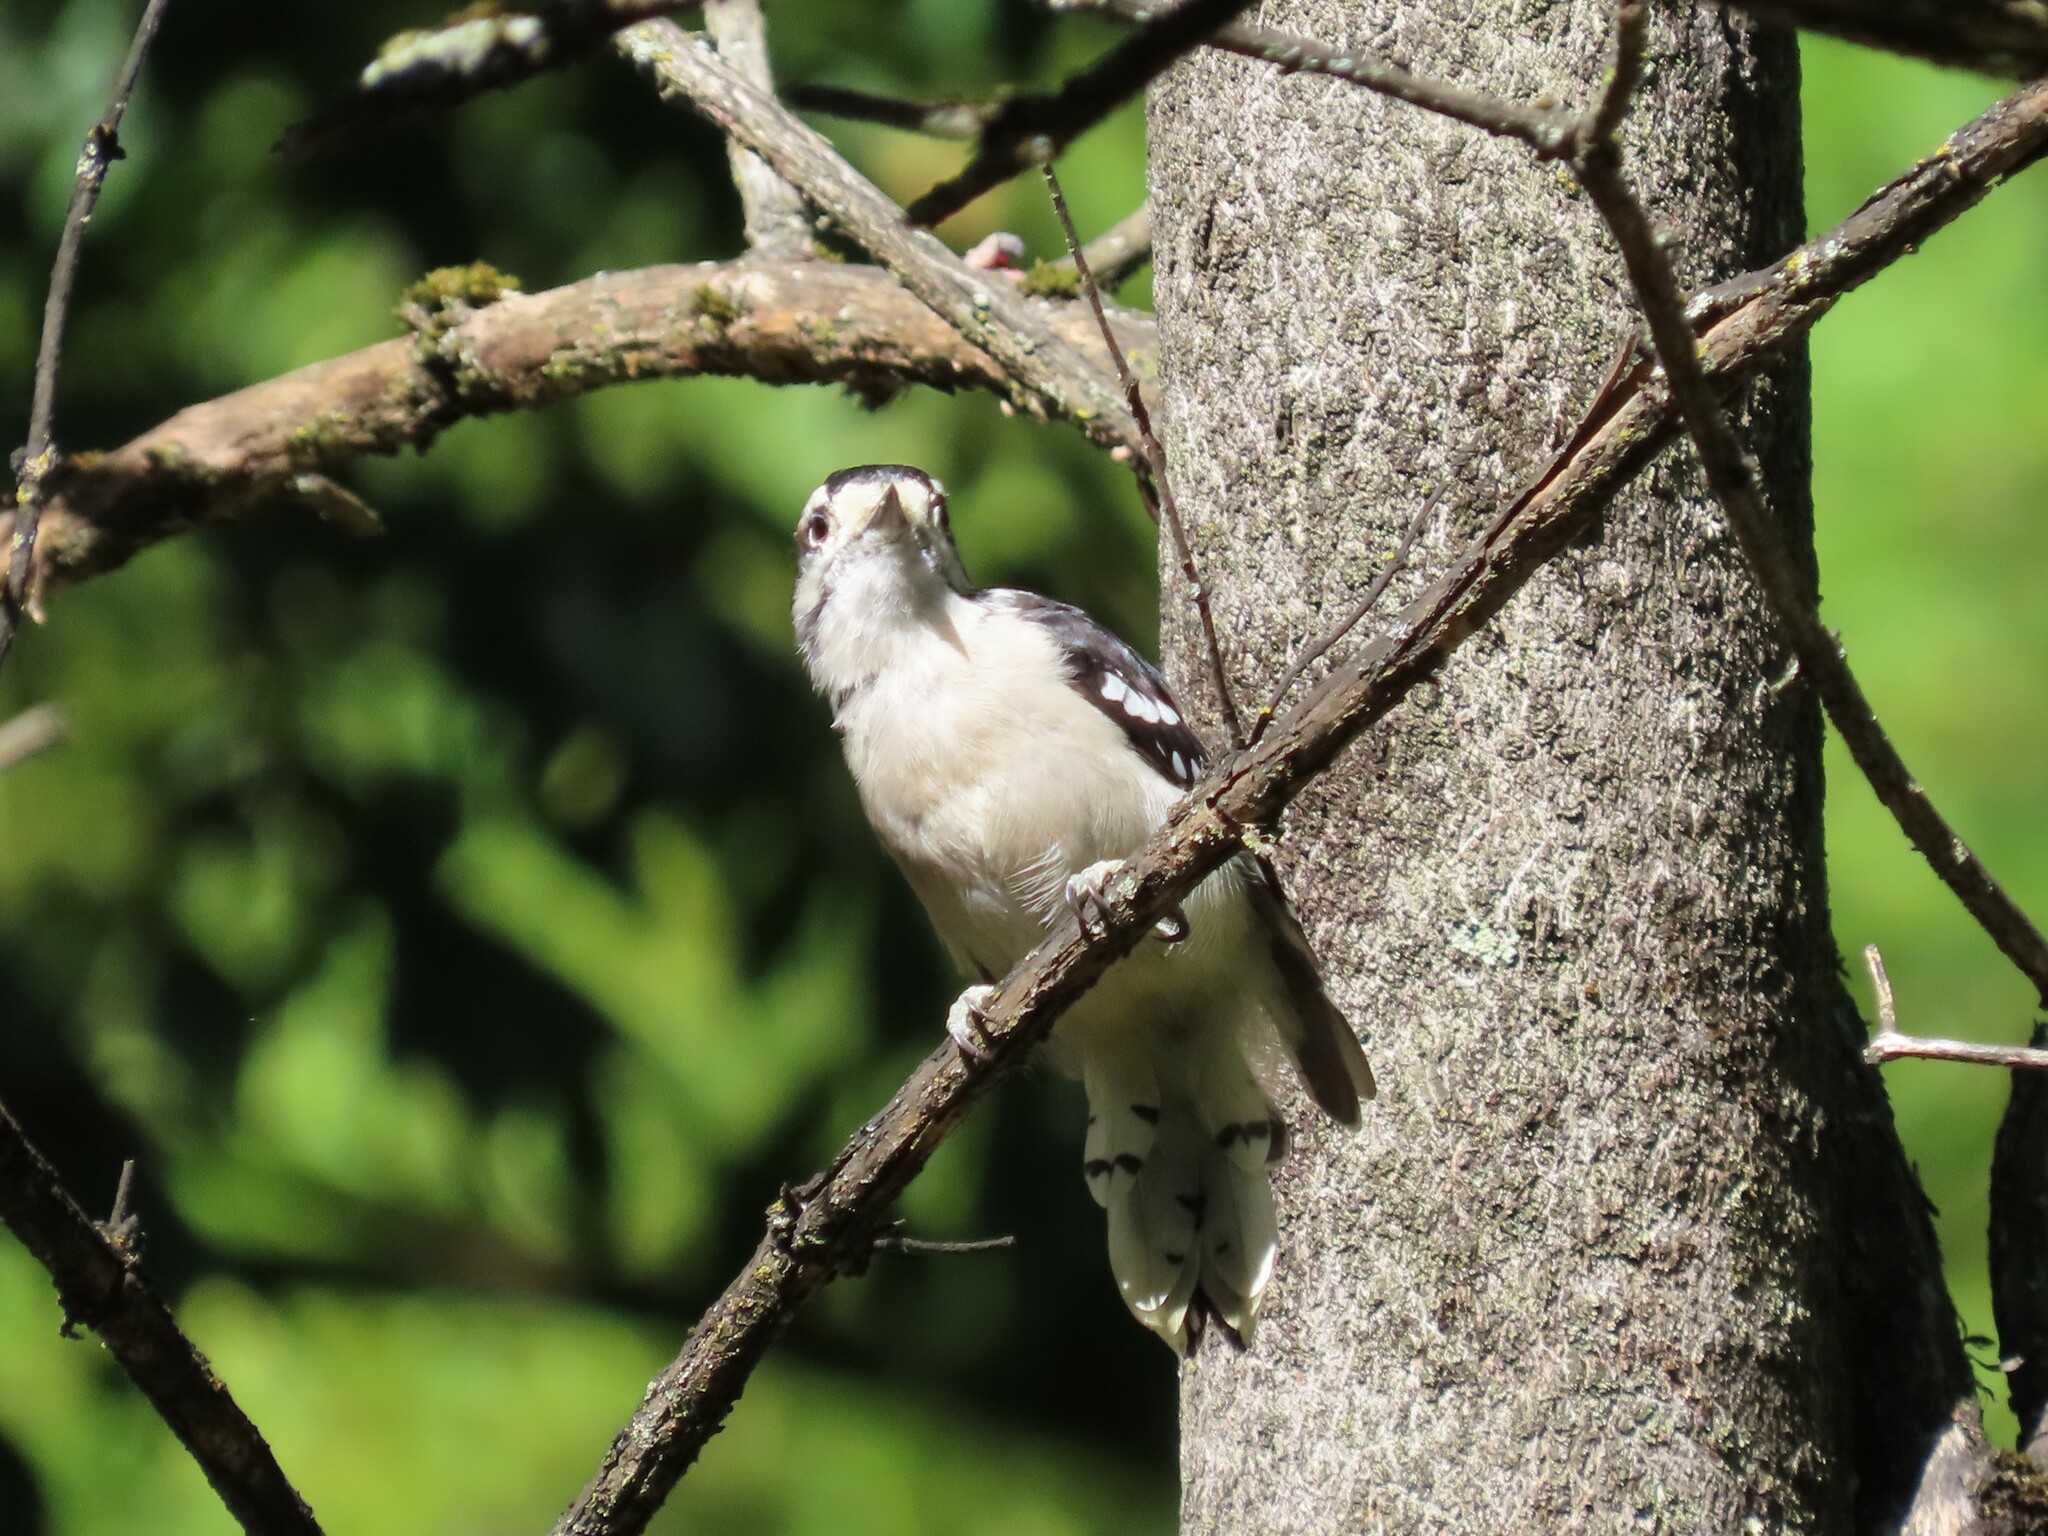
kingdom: Animalia
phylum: Chordata
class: Aves
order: Piciformes
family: Picidae
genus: Dryobates
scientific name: Dryobates pubescens
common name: Downy woodpecker
